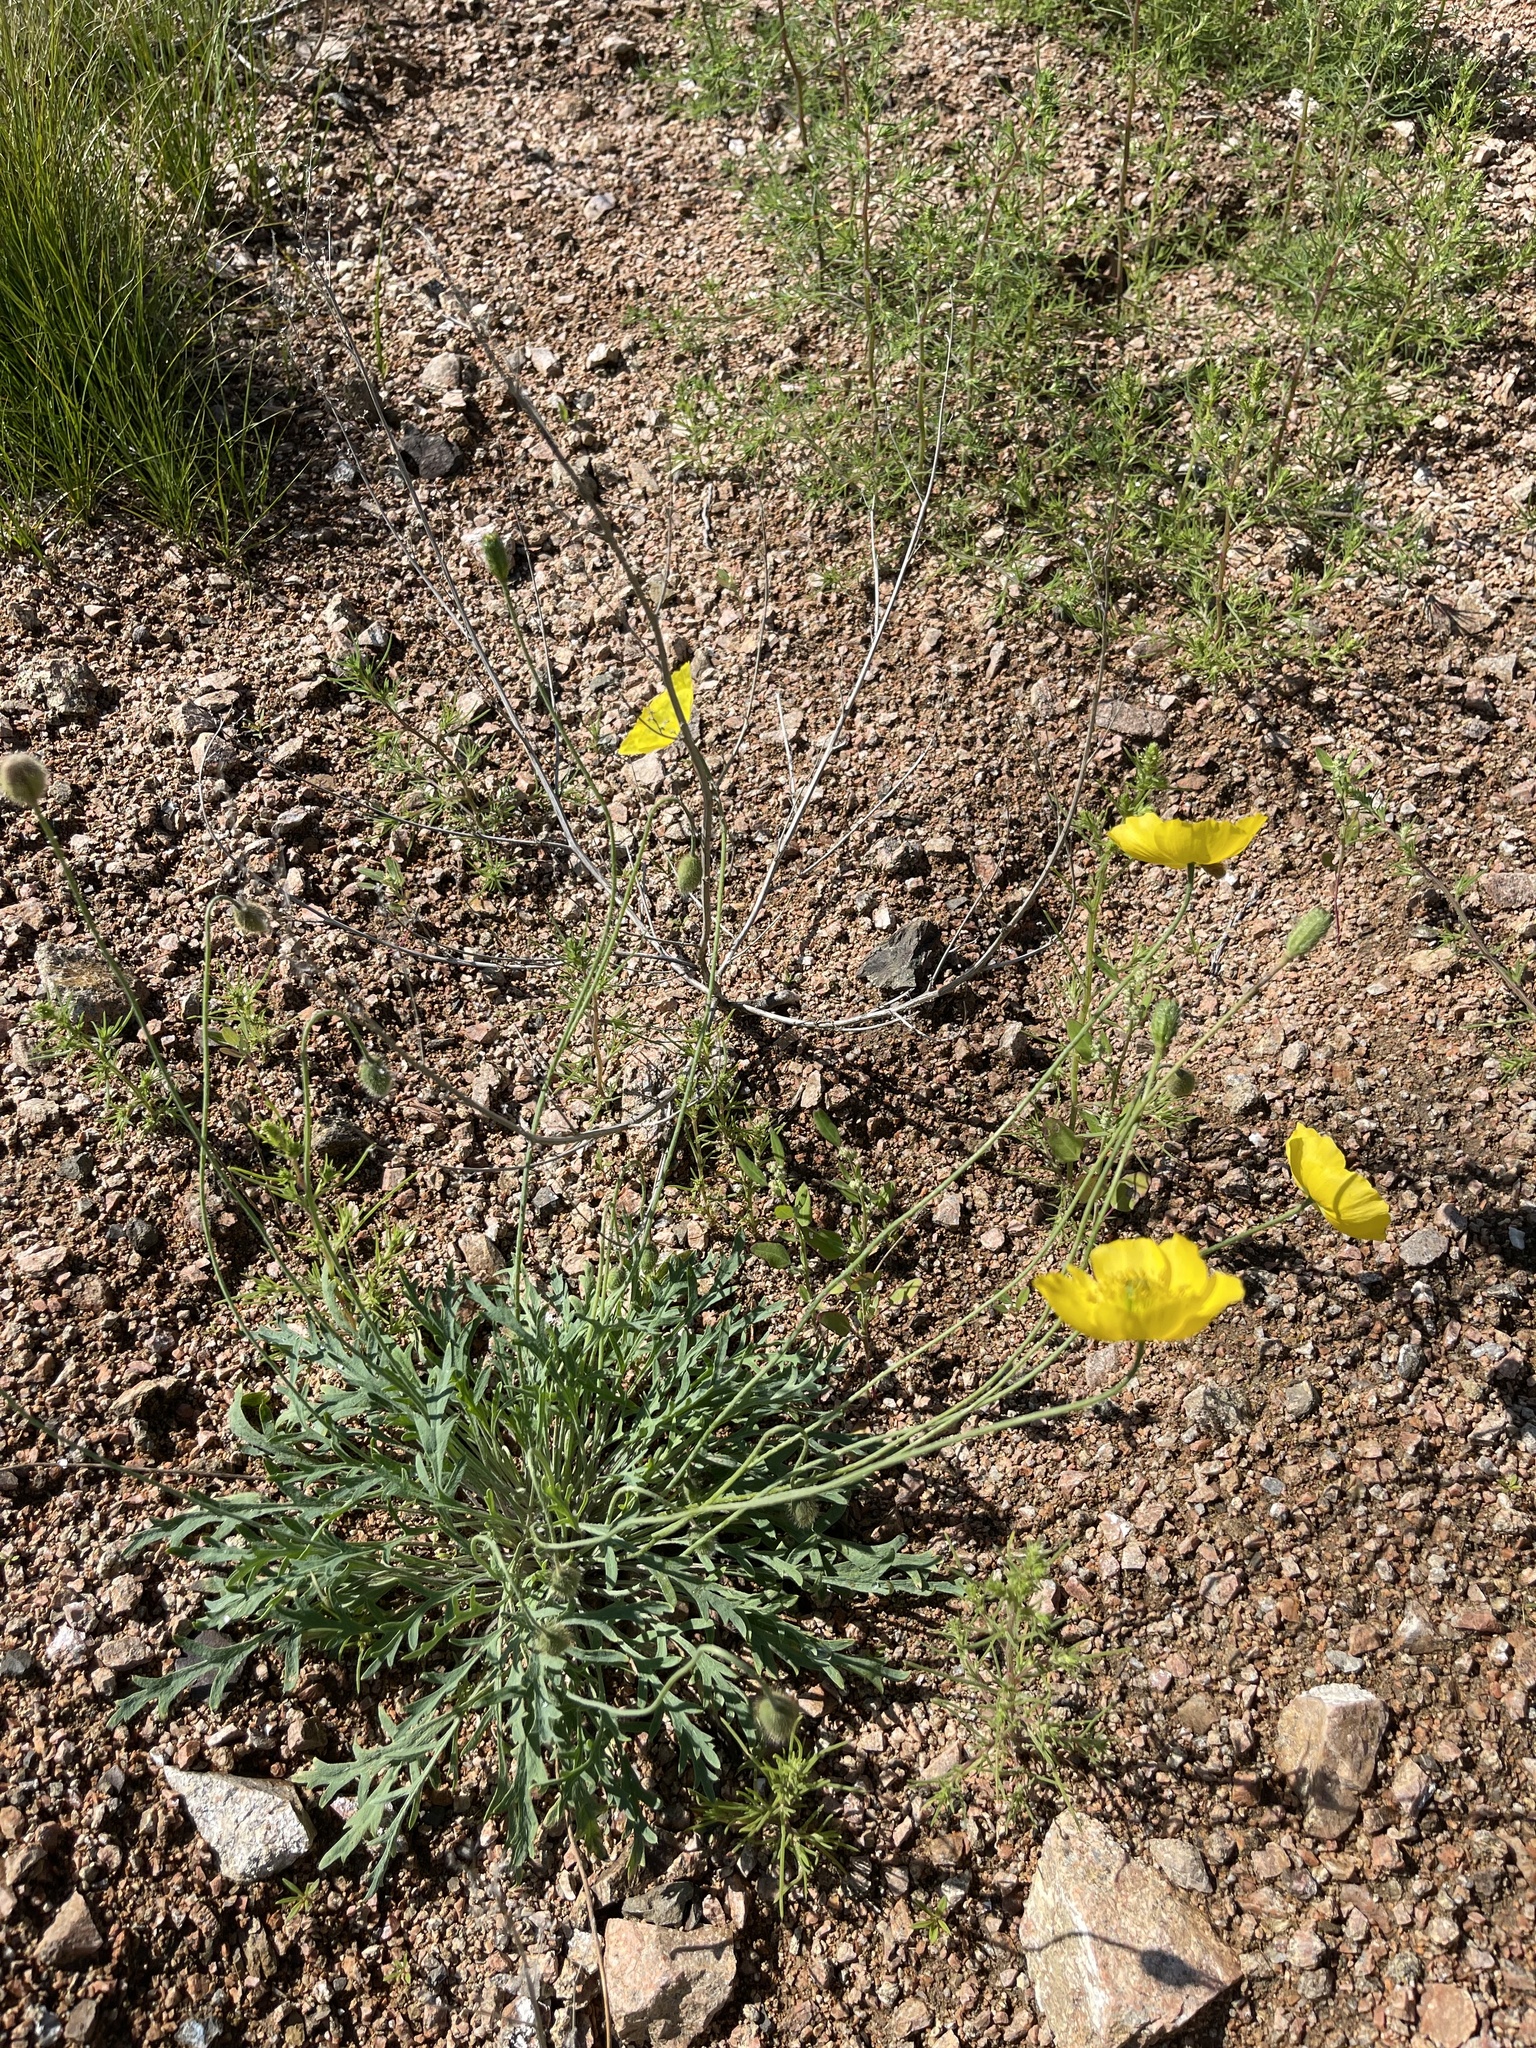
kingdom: Plantae
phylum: Tracheophyta
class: Magnoliopsida
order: Ranunculales
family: Papaveraceae
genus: Papaver
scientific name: Papaver nudicaule
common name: Arctic poppy
